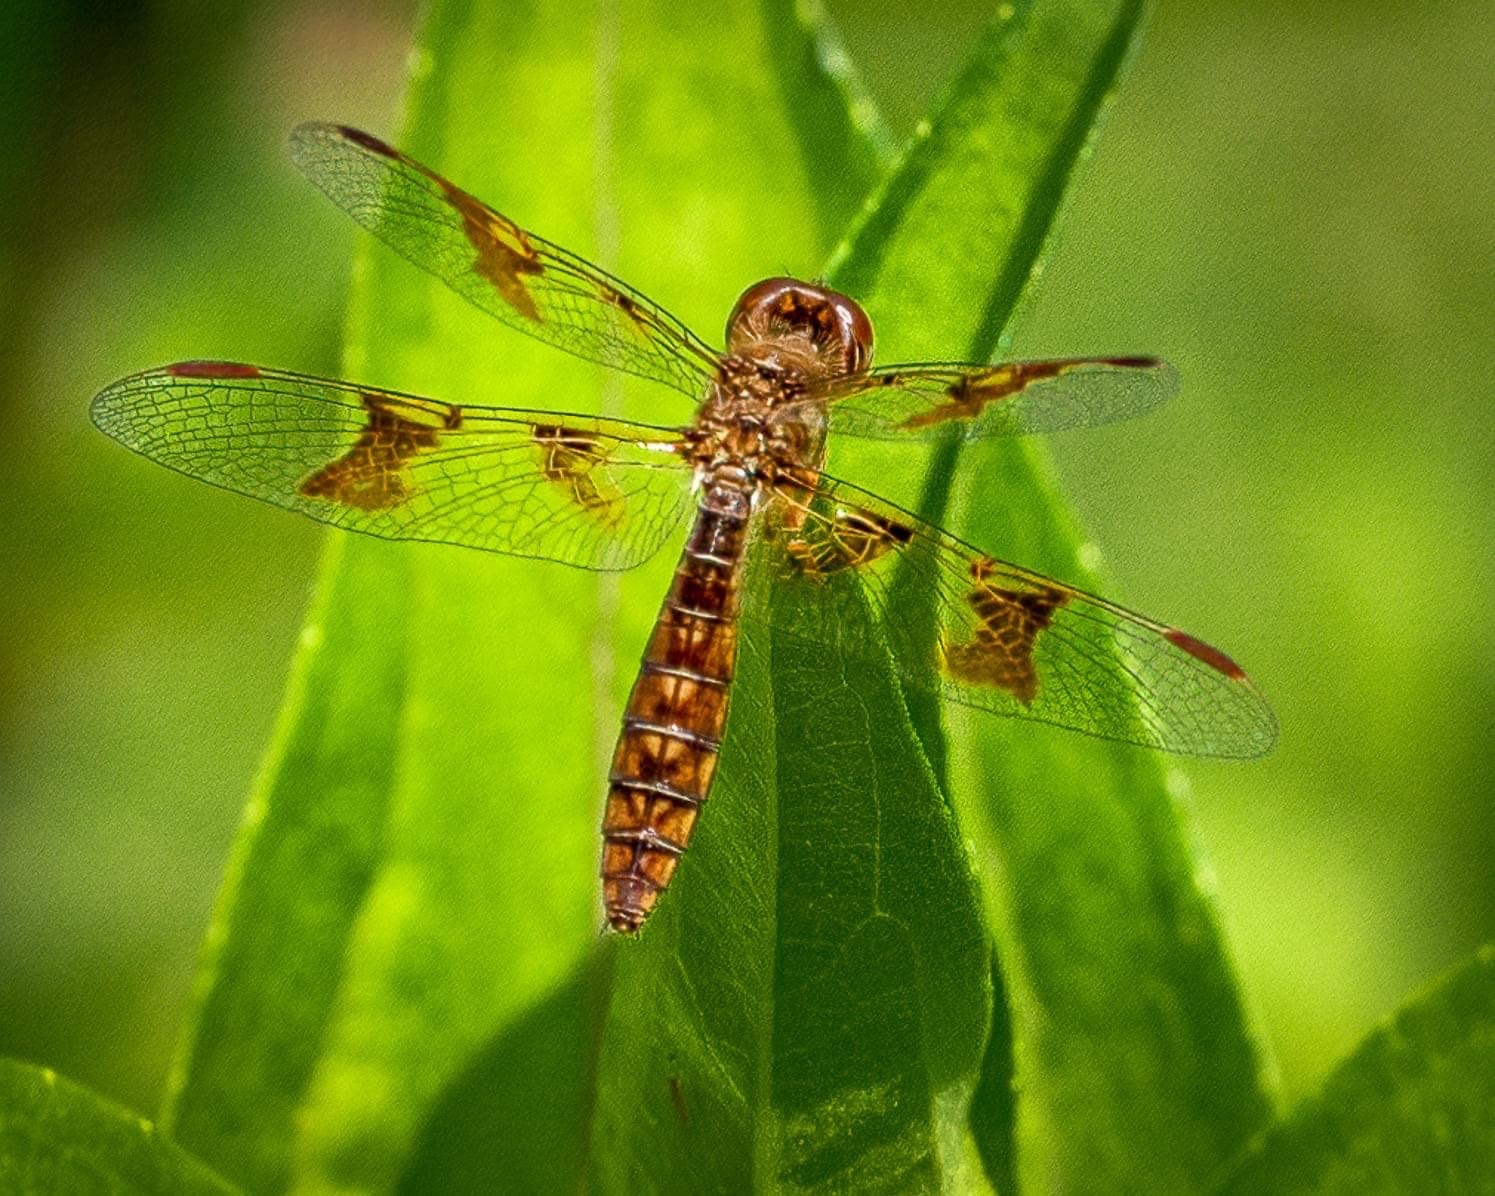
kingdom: Animalia
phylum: Arthropoda
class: Insecta
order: Odonata
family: Libellulidae
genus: Perithemis
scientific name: Perithemis tenera
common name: Eastern amberwing
